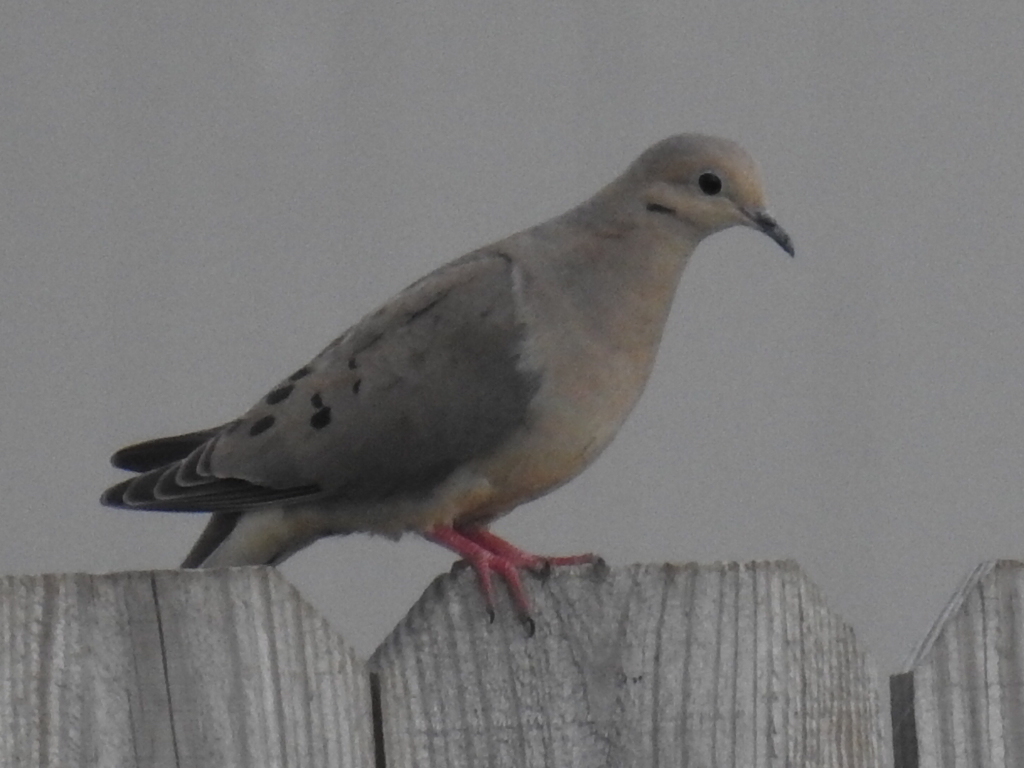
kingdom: Animalia
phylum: Chordata
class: Aves
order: Columbiformes
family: Columbidae
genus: Zenaida
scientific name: Zenaida macroura
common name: Mourning dove
